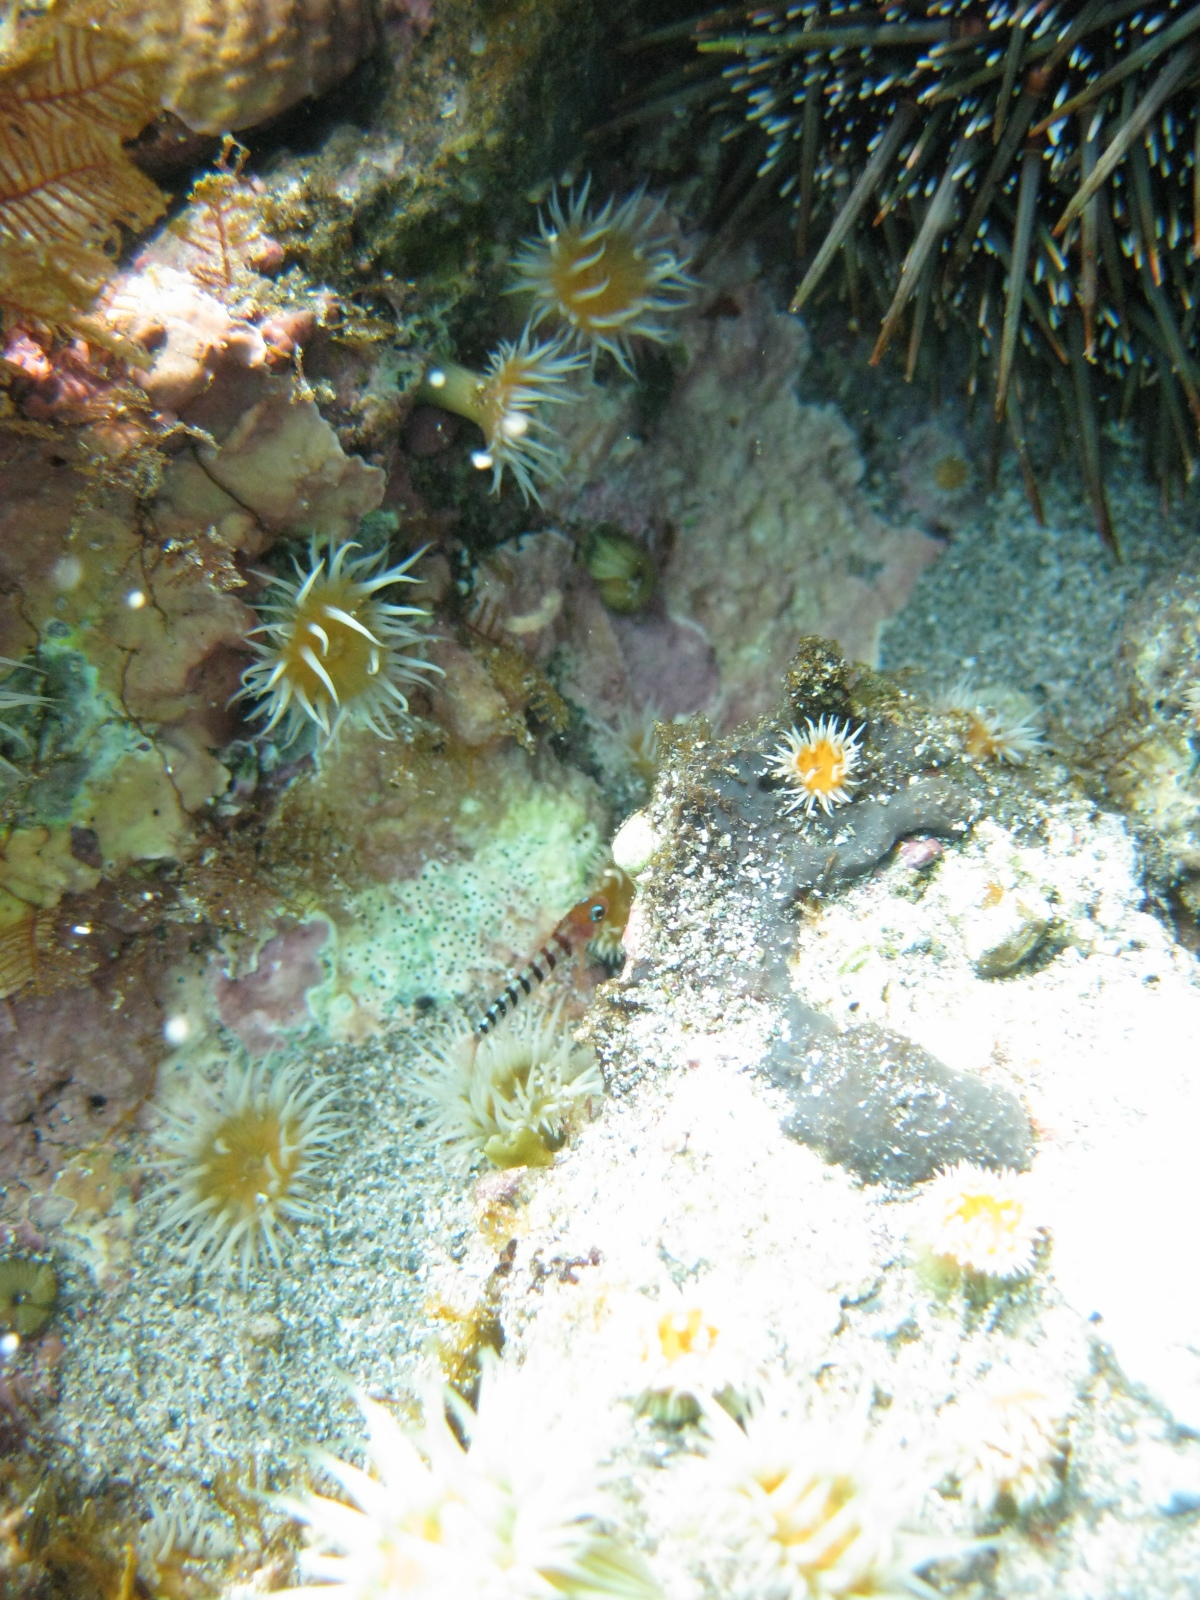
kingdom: Animalia
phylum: Chordata
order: Perciformes
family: Tripterygiidae
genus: Notoclinops
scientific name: Notoclinops segmentatus
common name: Blue-eyed triplefin
